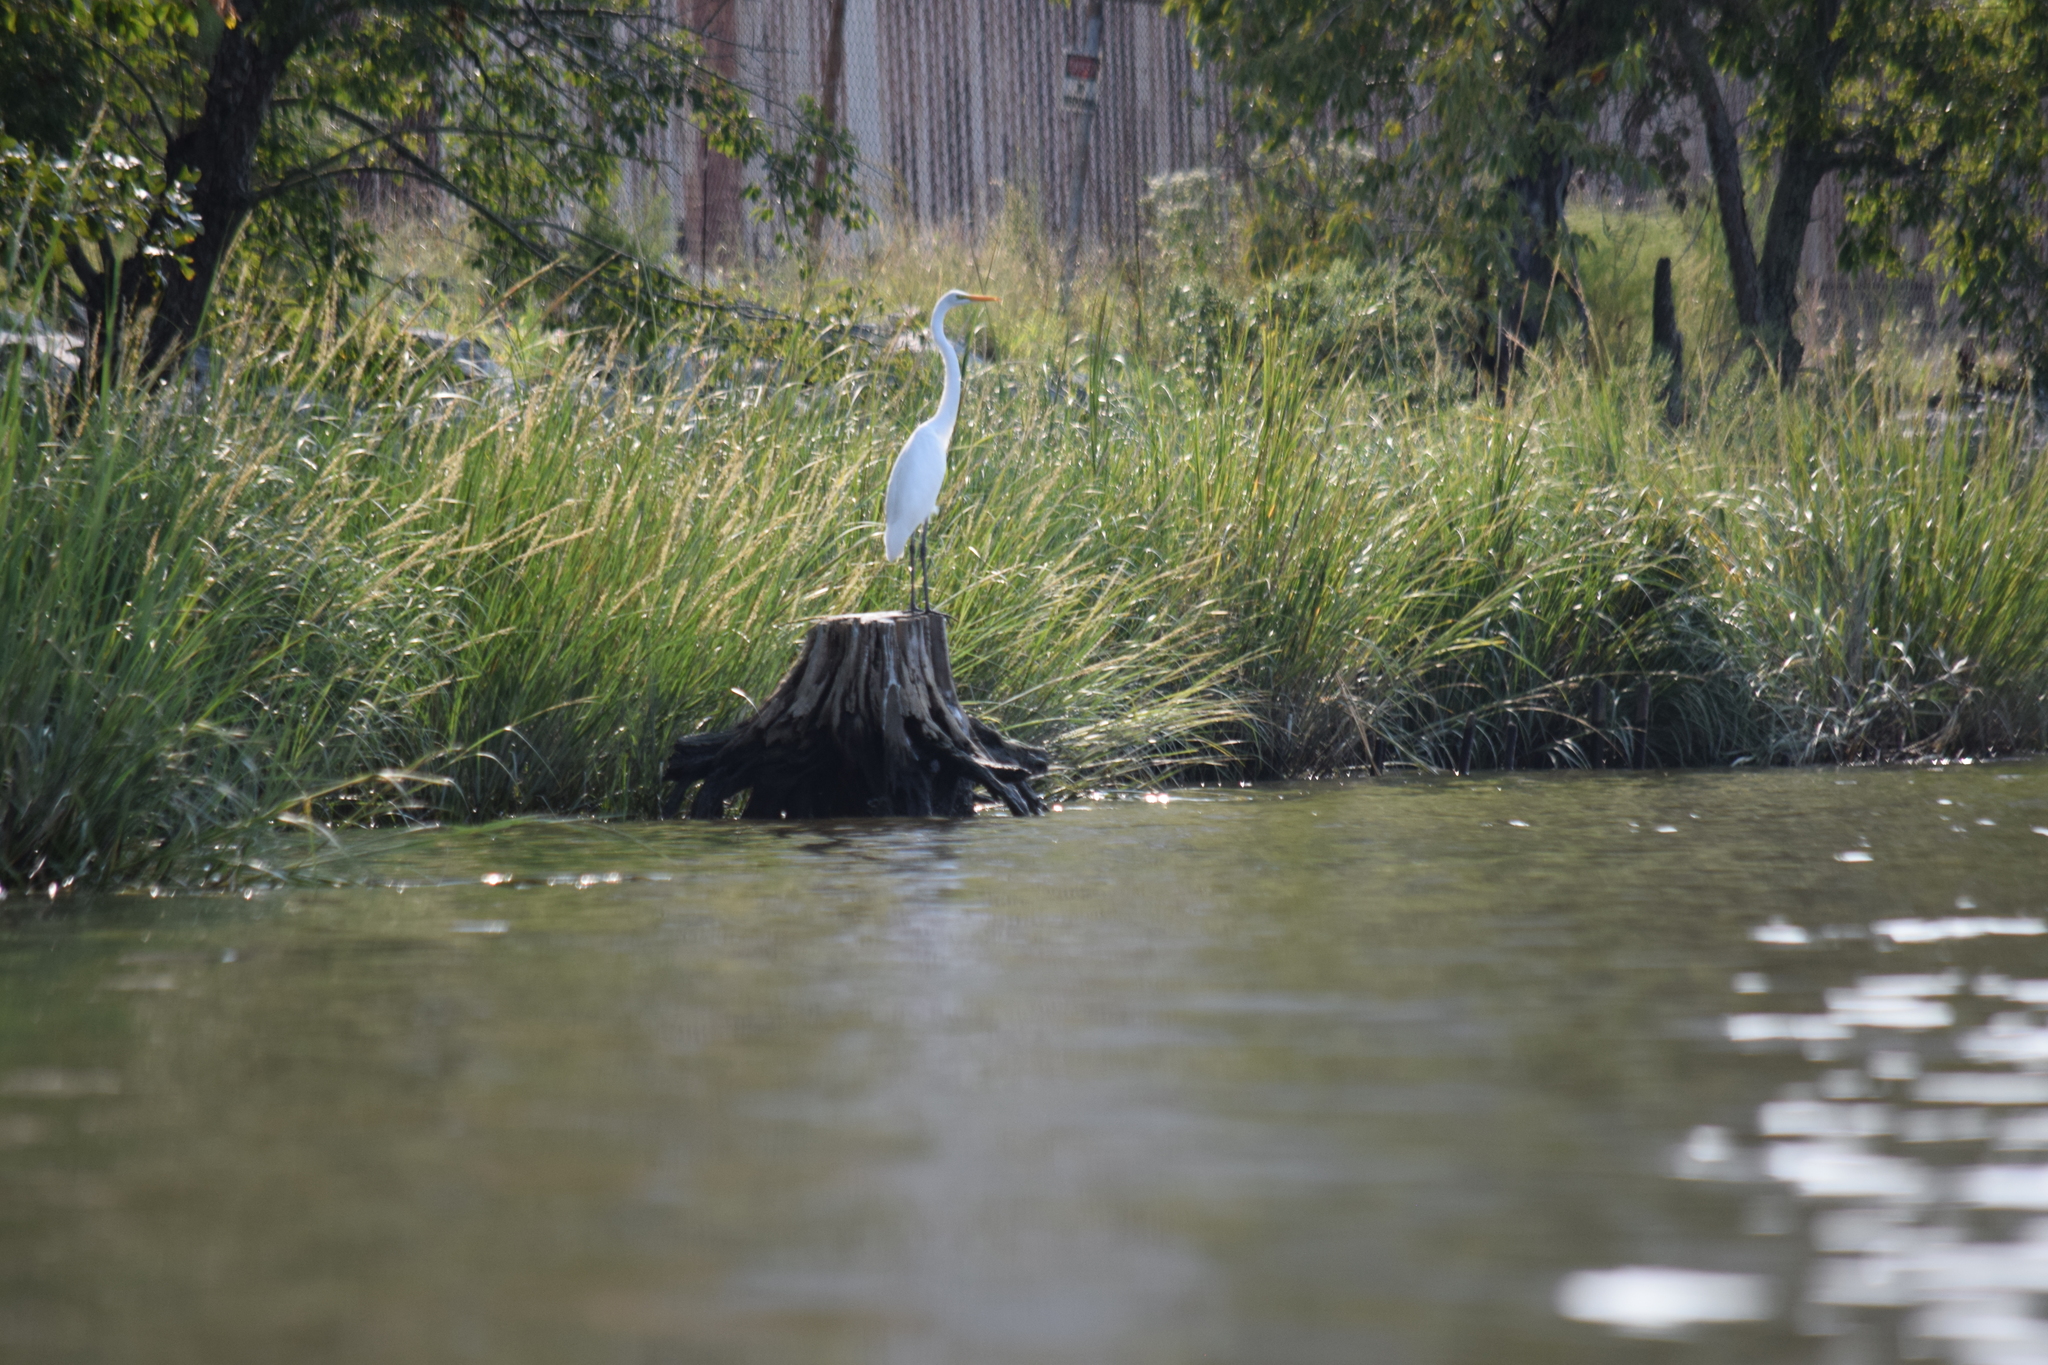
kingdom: Animalia
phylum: Chordata
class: Aves
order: Pelecaniformes
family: Ardeidae
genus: Ardea
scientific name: Ardea alba
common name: Great egret
